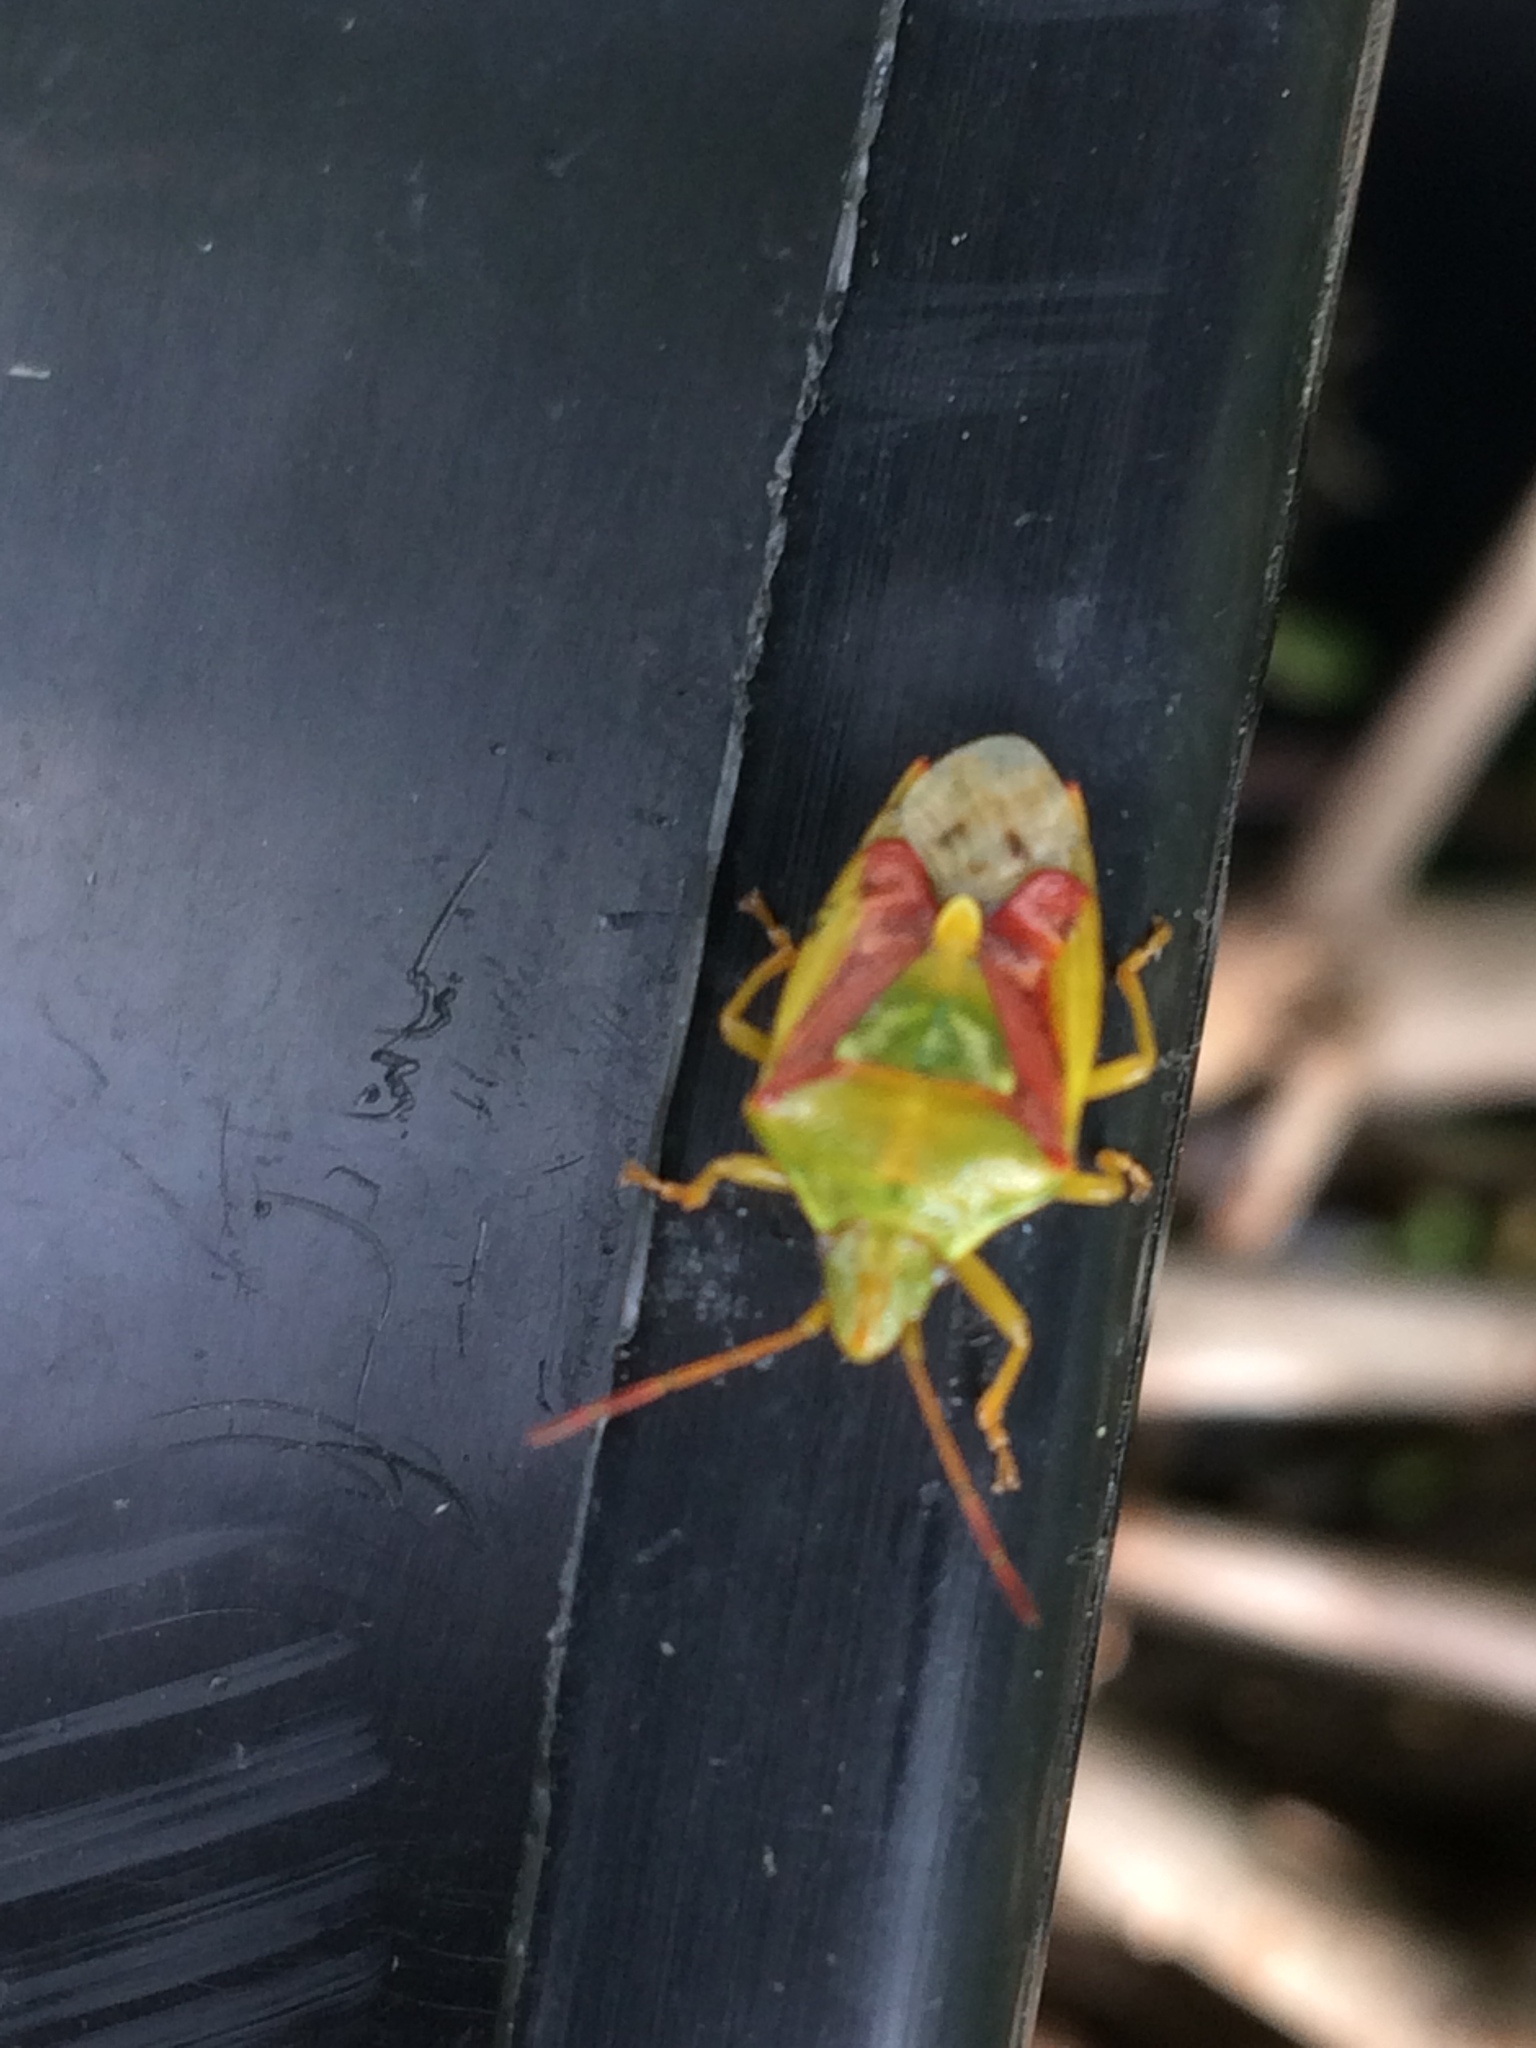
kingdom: Animalia
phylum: Arthropoda
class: Insecta
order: Hemiptera
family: Acanthosomatidae
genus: Cyphostethus
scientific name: Cyphostethus tristriatus
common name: Juniper shieldbug
